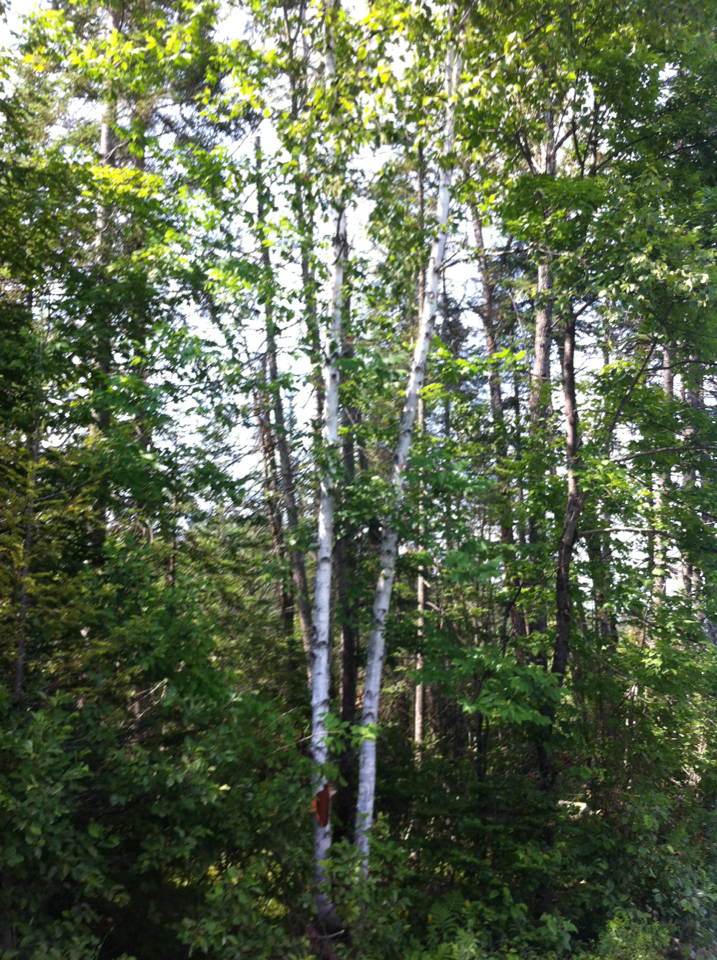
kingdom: Plantae
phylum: Tracheophyta
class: Magnoliopsida
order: Fagales
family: Betulaceae
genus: Betula
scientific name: Betula papyrifera
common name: Paper birch
